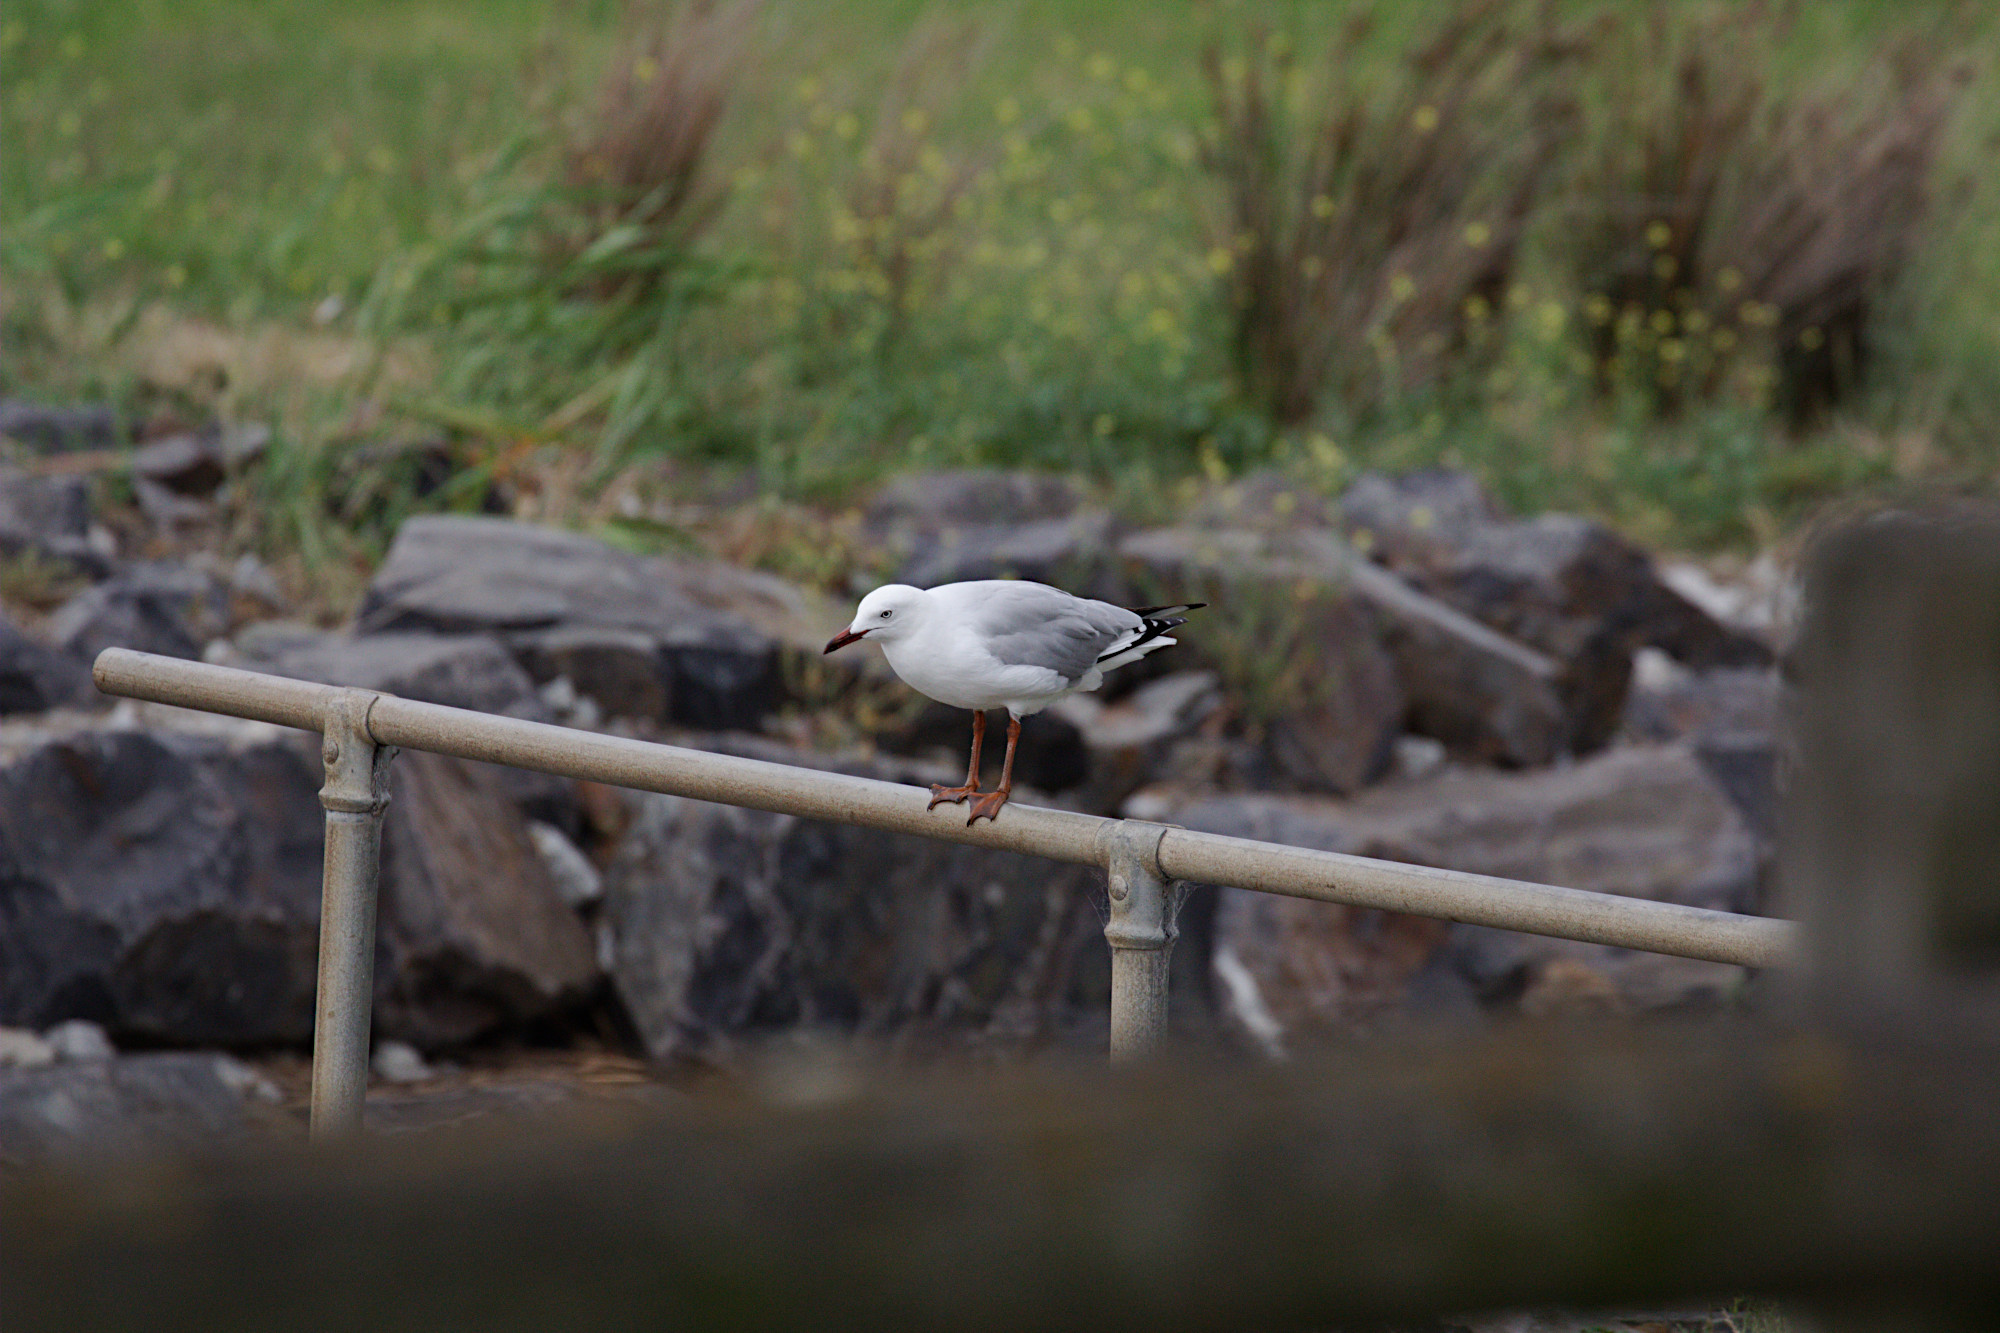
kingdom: Animalia
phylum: Chordata
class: Aves
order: Charadriiformes
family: Laridae
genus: Chroicocephalus
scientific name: Chroicocephalus novaehollandiae
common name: Silver gull
